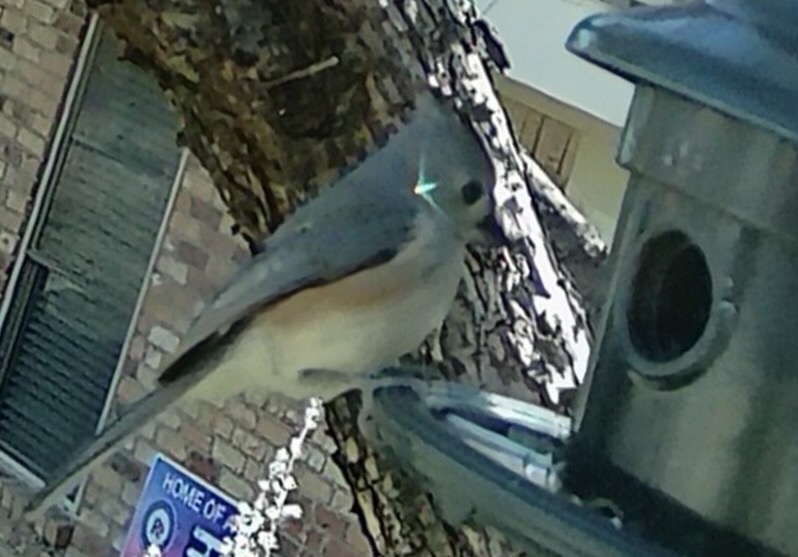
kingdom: Animalia
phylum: Chordata
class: Aves
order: Passeriformes
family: Paridae
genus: Baeolophus
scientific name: Baeolophus bicolor
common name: Tufted titmouse
